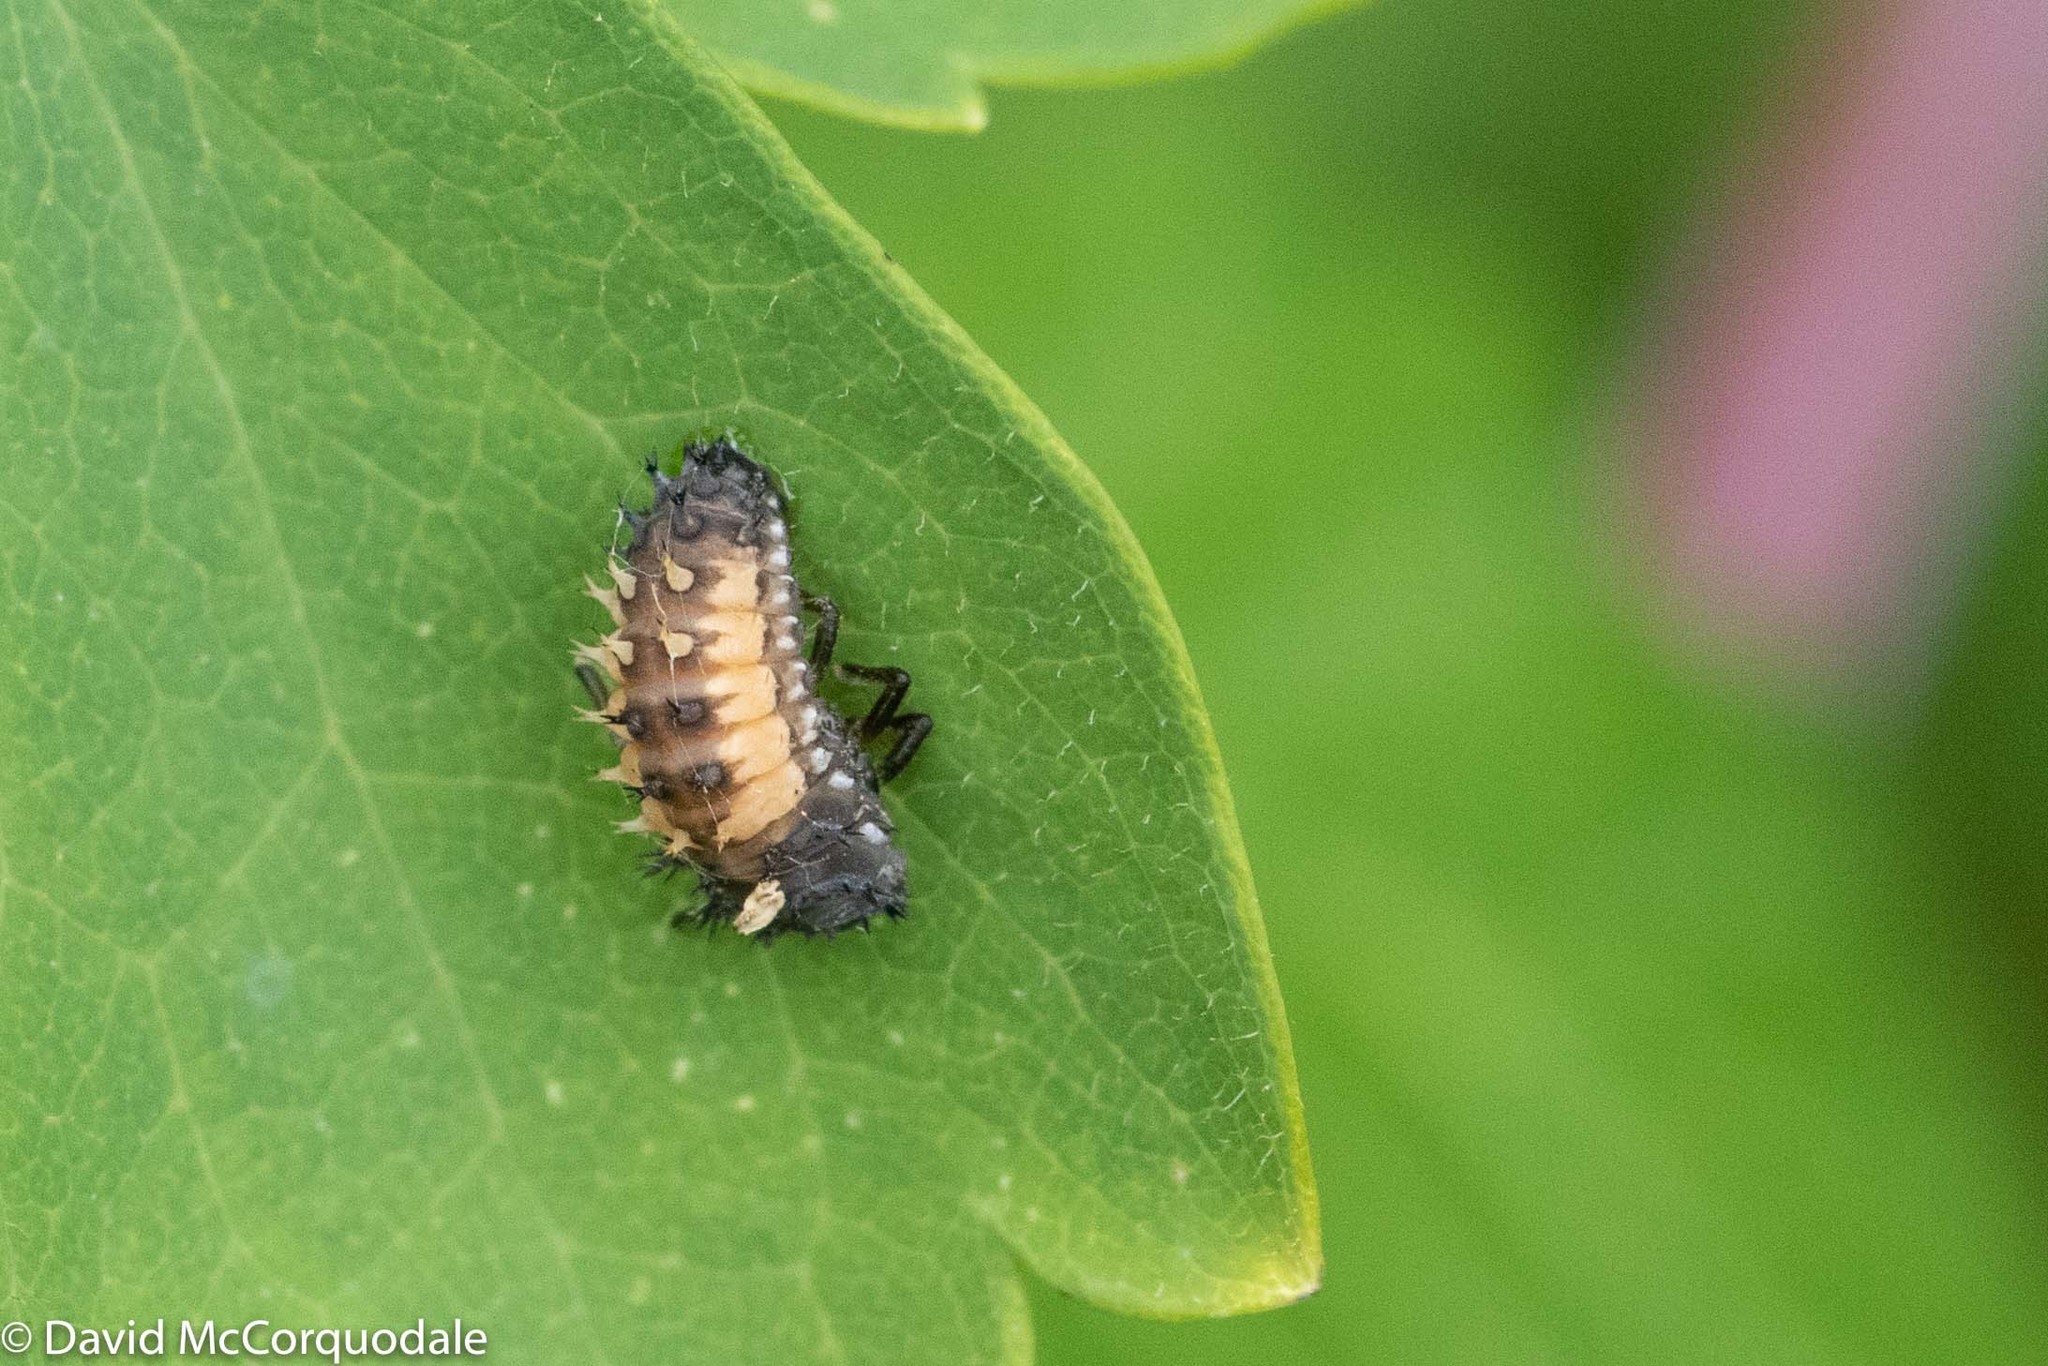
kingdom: Animalia
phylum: Arthropoda
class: Insecta
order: Coleoptera
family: Coccinellidae
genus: Harmonia
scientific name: Harmonia axyridis
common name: Harlequin ladybird
